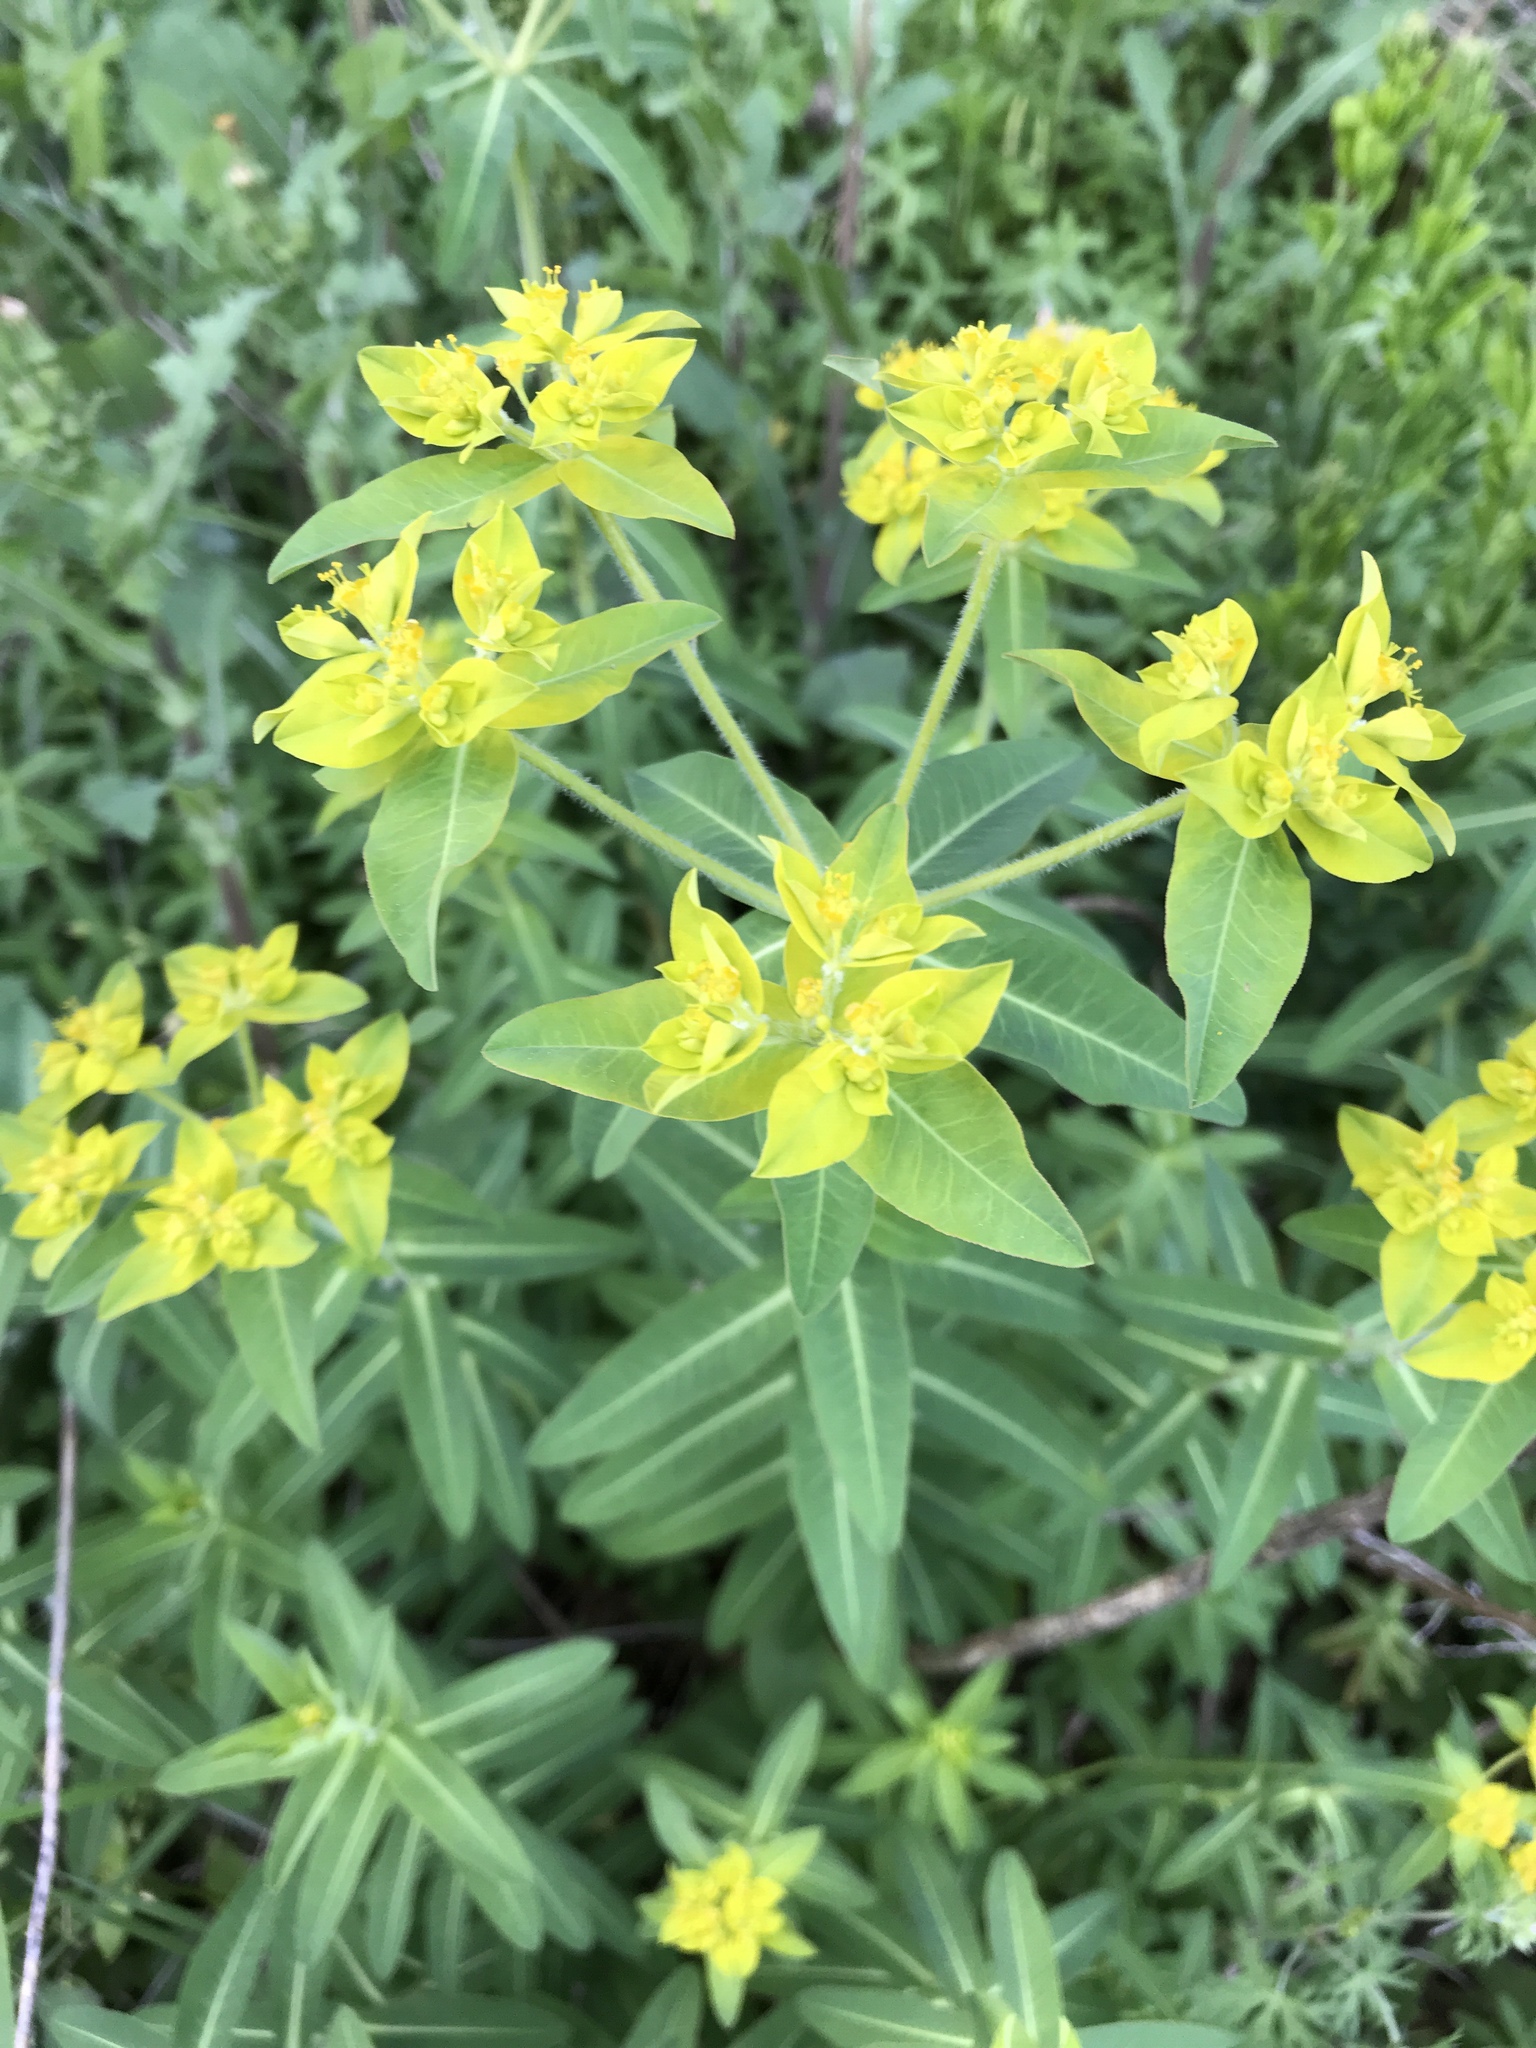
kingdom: Plantae
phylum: Tracheophyta
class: Magnoliopsida
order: Malpighiales
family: Euphorbiaceae
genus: Euphorbia
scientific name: Euphorbia oblongata
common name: Balkan spurge
